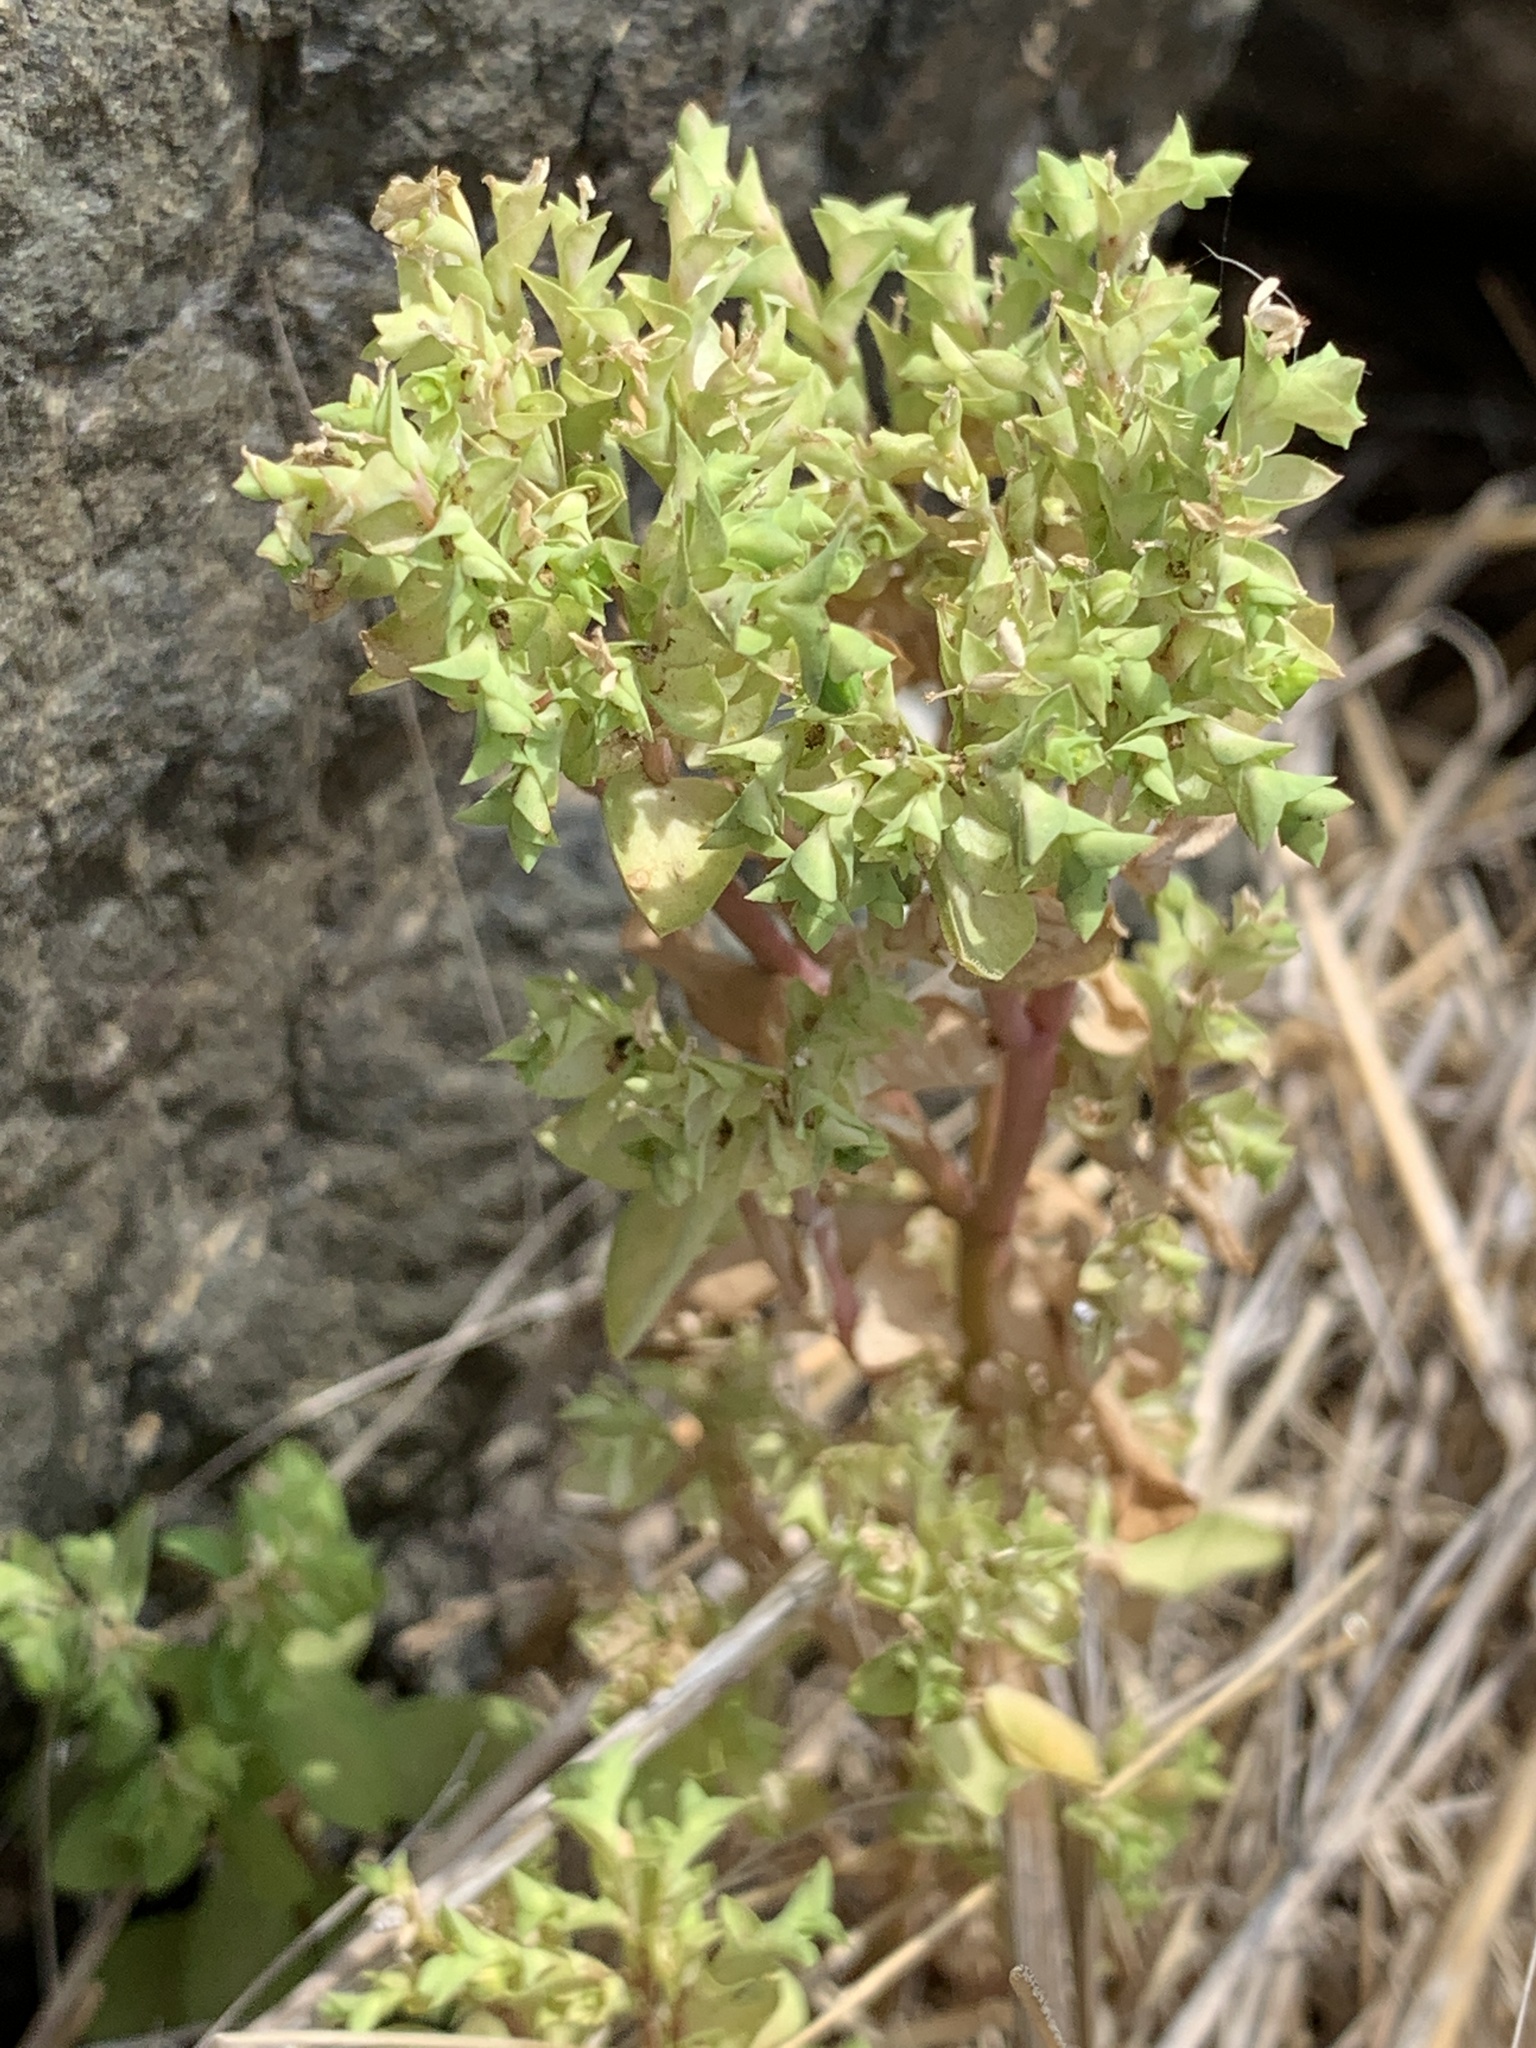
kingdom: Plantae
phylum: Tracheophyta
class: Magnoliopsida
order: Malpighiales
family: Euphorbiaceae
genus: Euphorbia
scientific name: Euphorbia peplus
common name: Petty spurge
